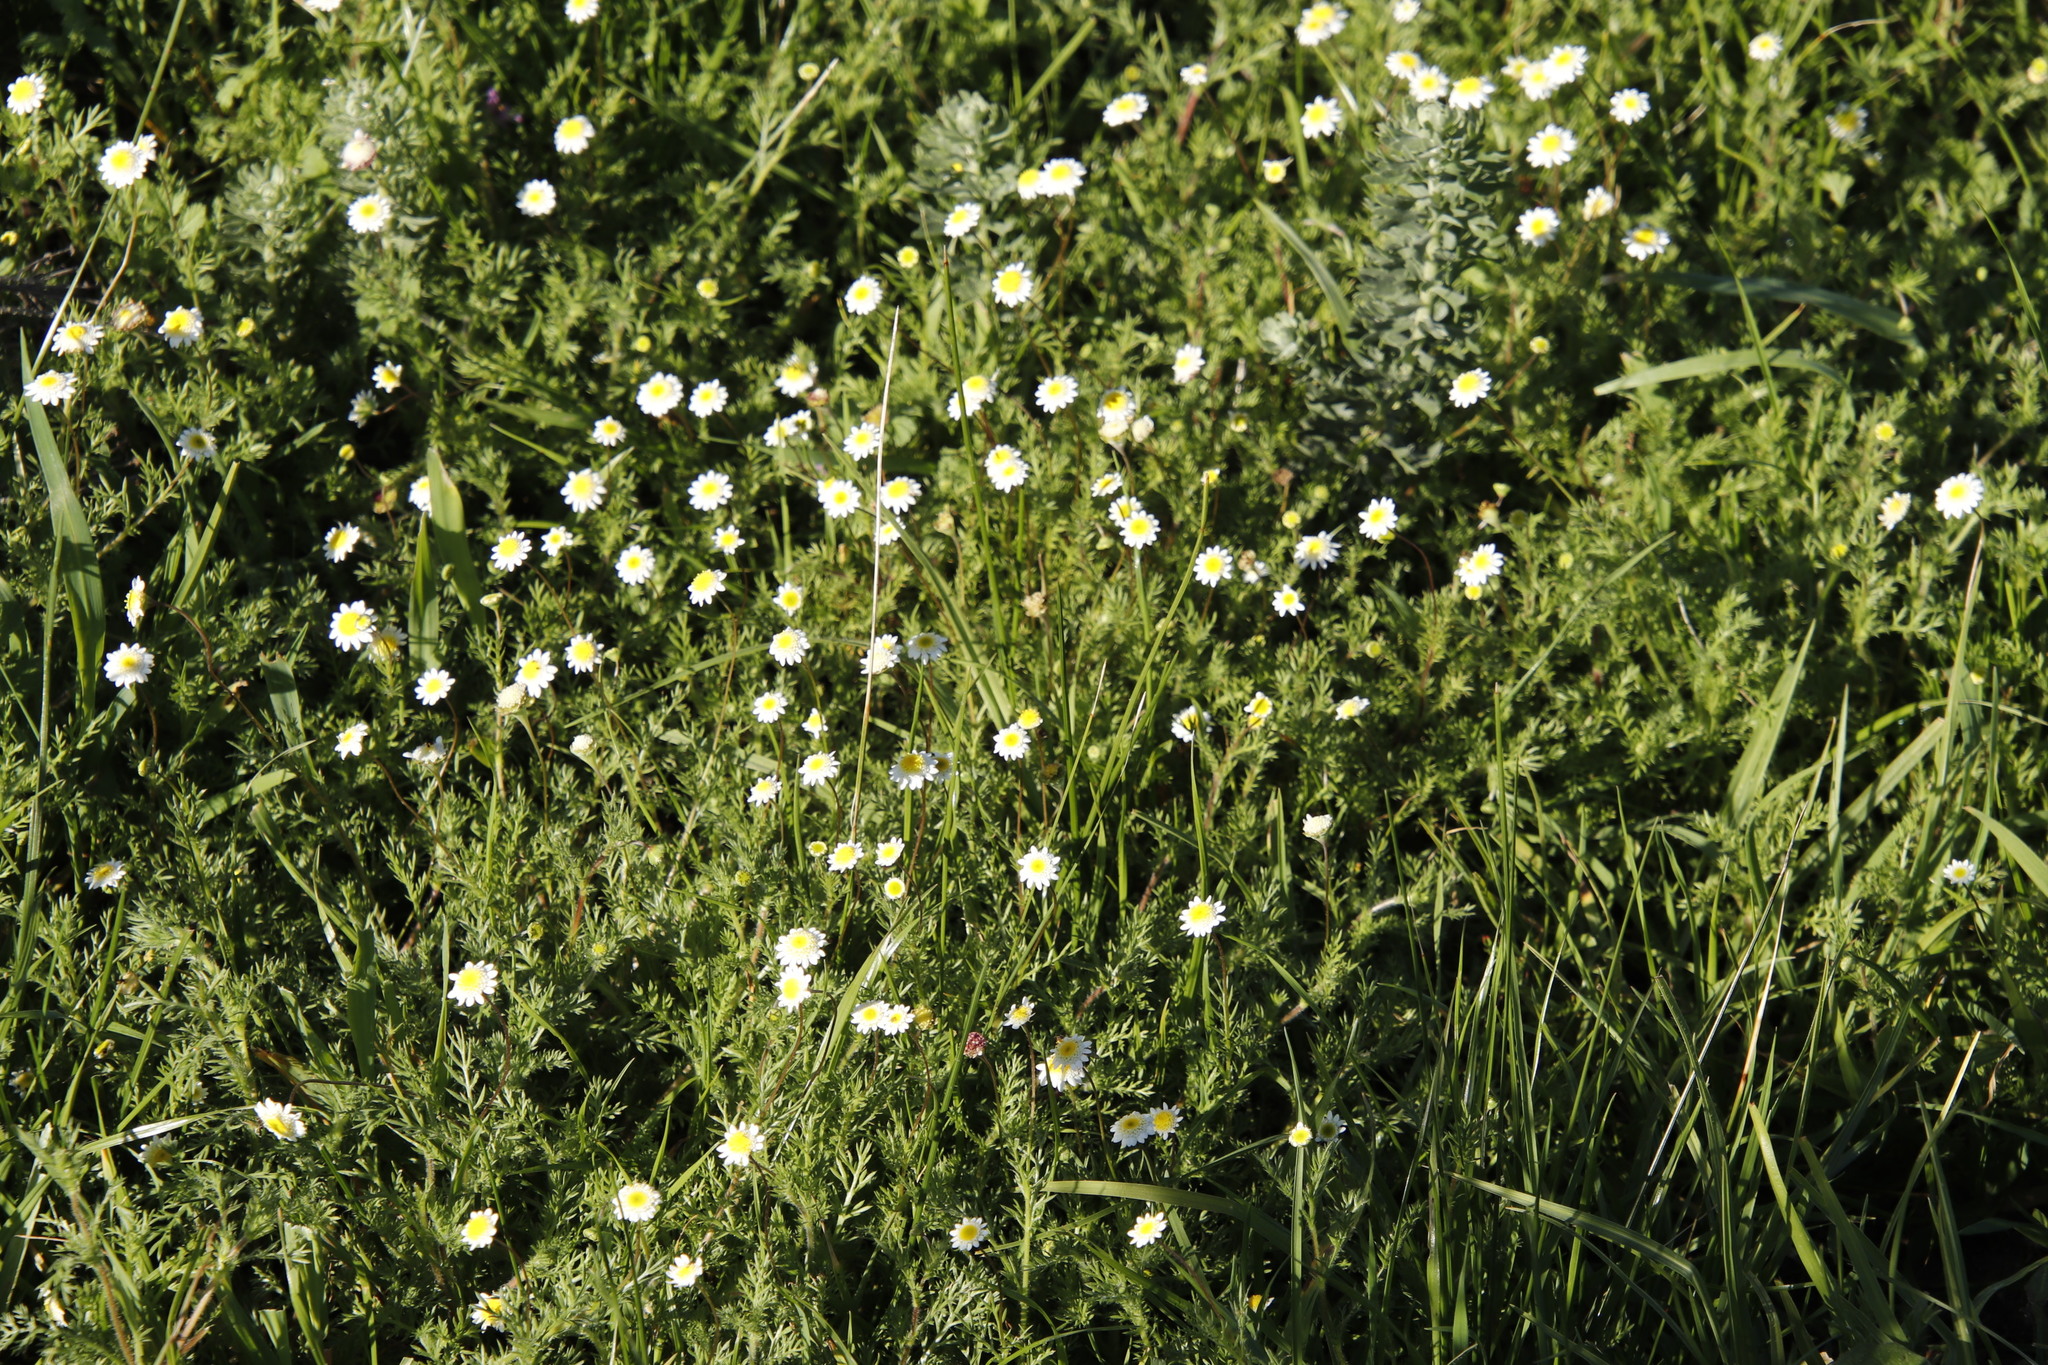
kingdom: Plantae
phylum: Tracheophyta
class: Magnoliopsida
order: Asterales
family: Asteraceae
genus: Cotula
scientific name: Cotula turbinata
